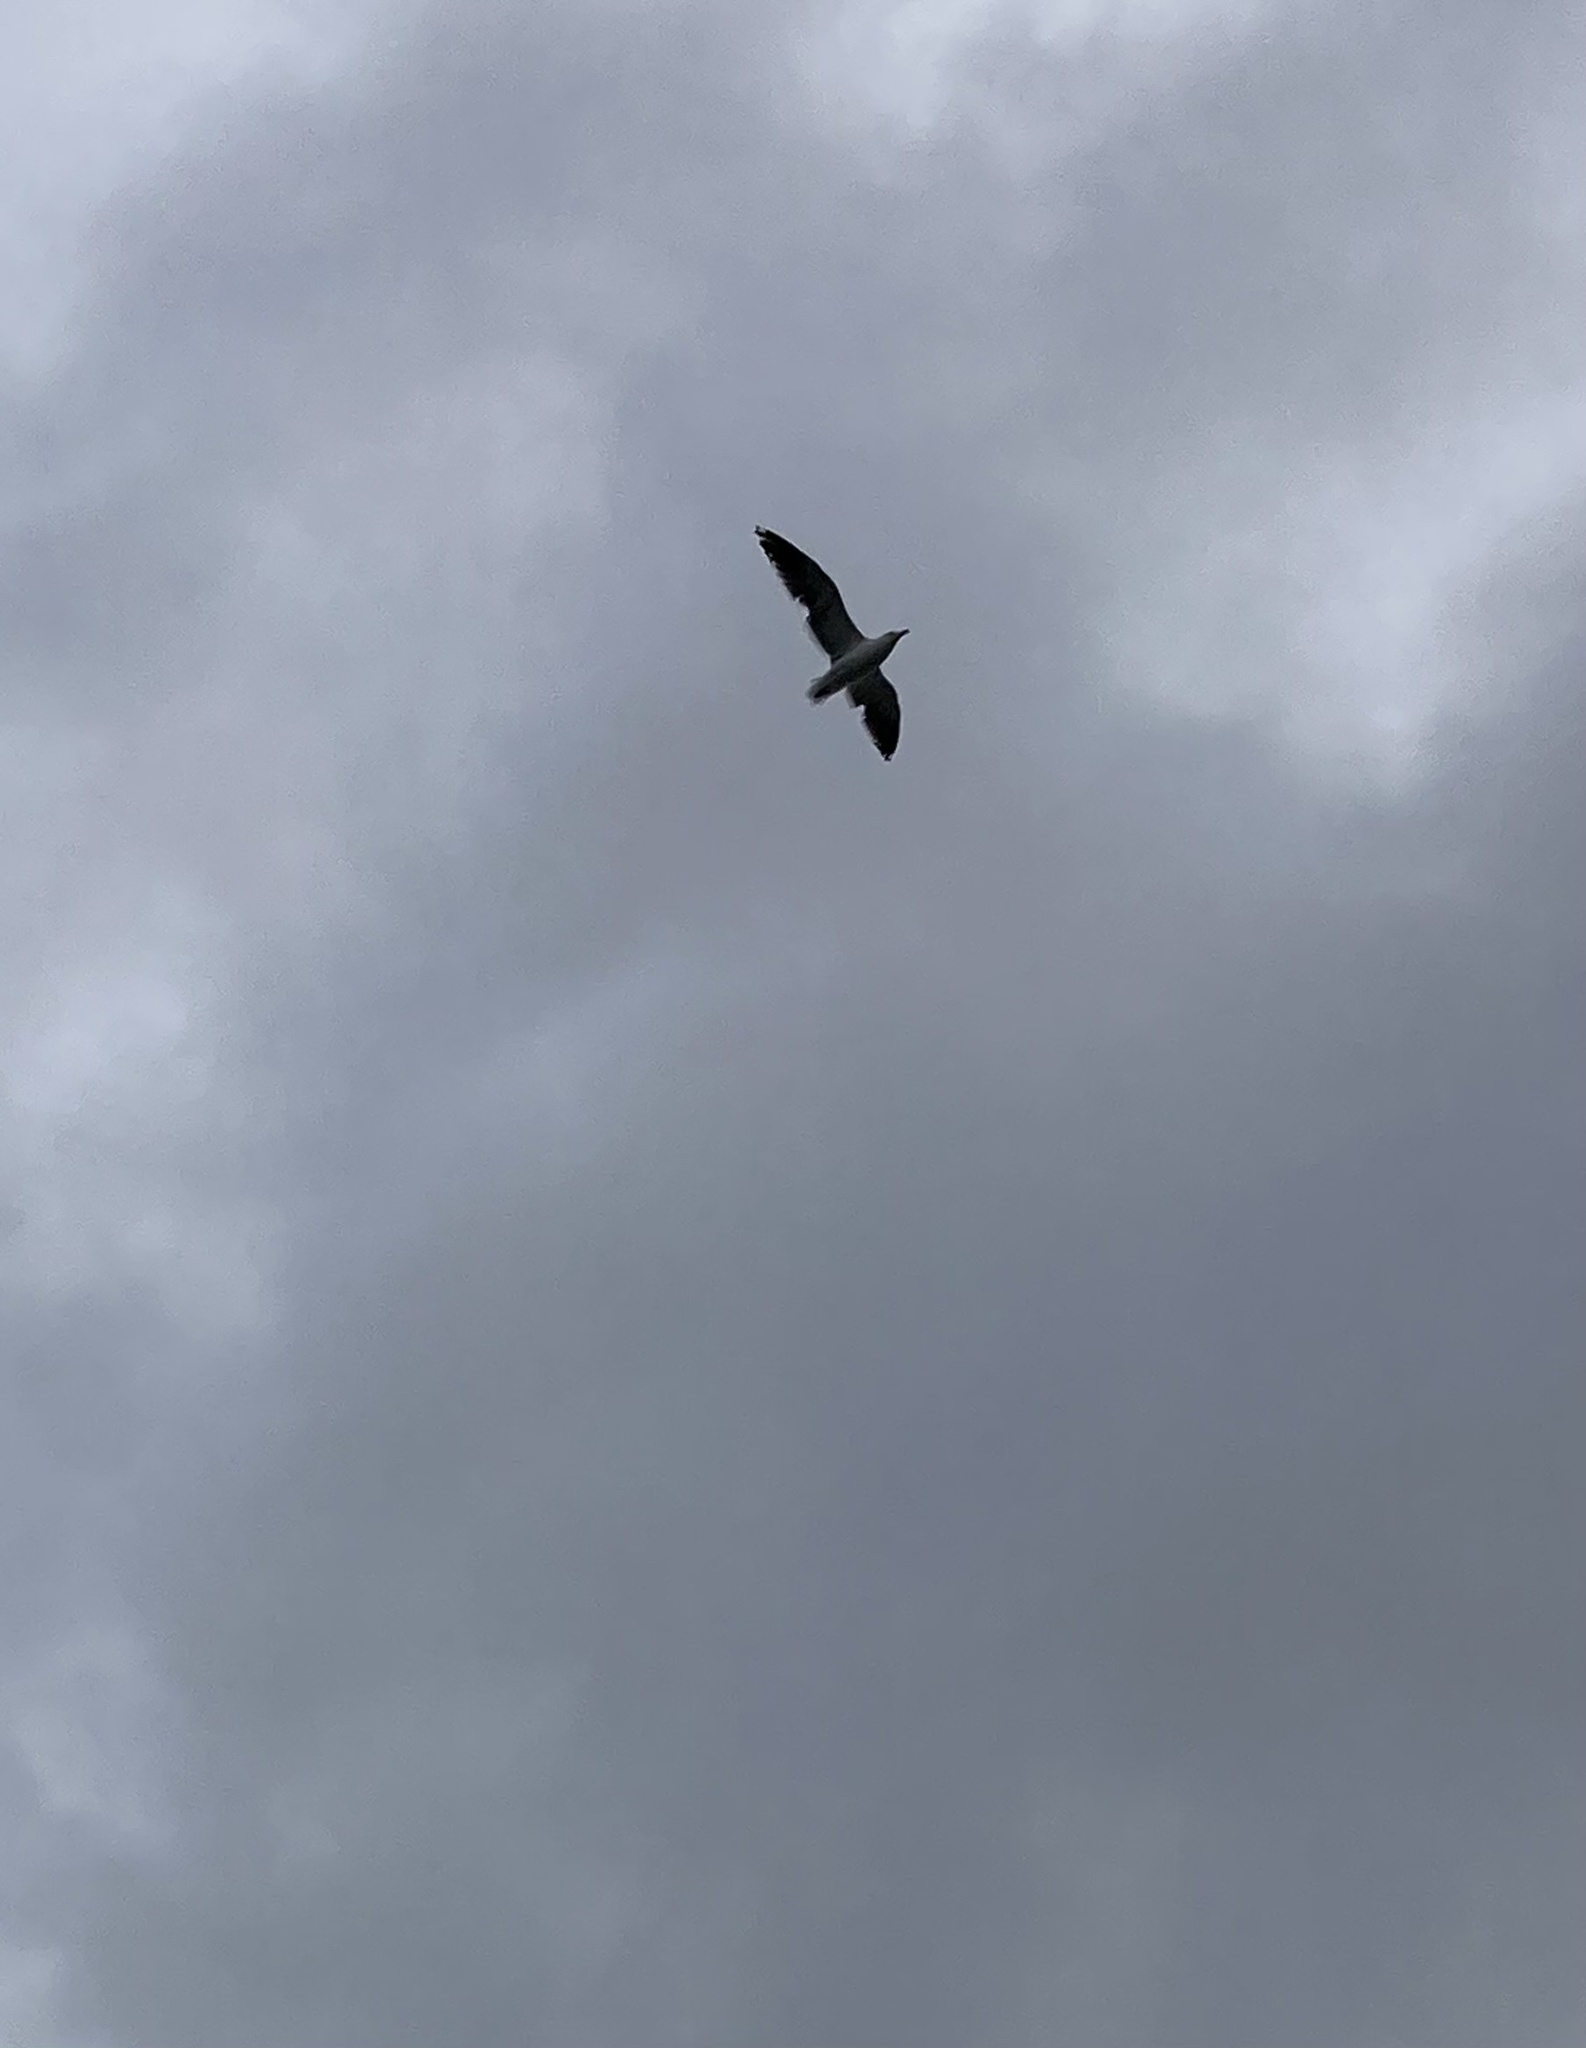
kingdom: Animalia
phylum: Chordata
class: Aves
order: Charadriiformes
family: Laridae
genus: Larus
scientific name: Larus dominicanus
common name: Kelp gull
